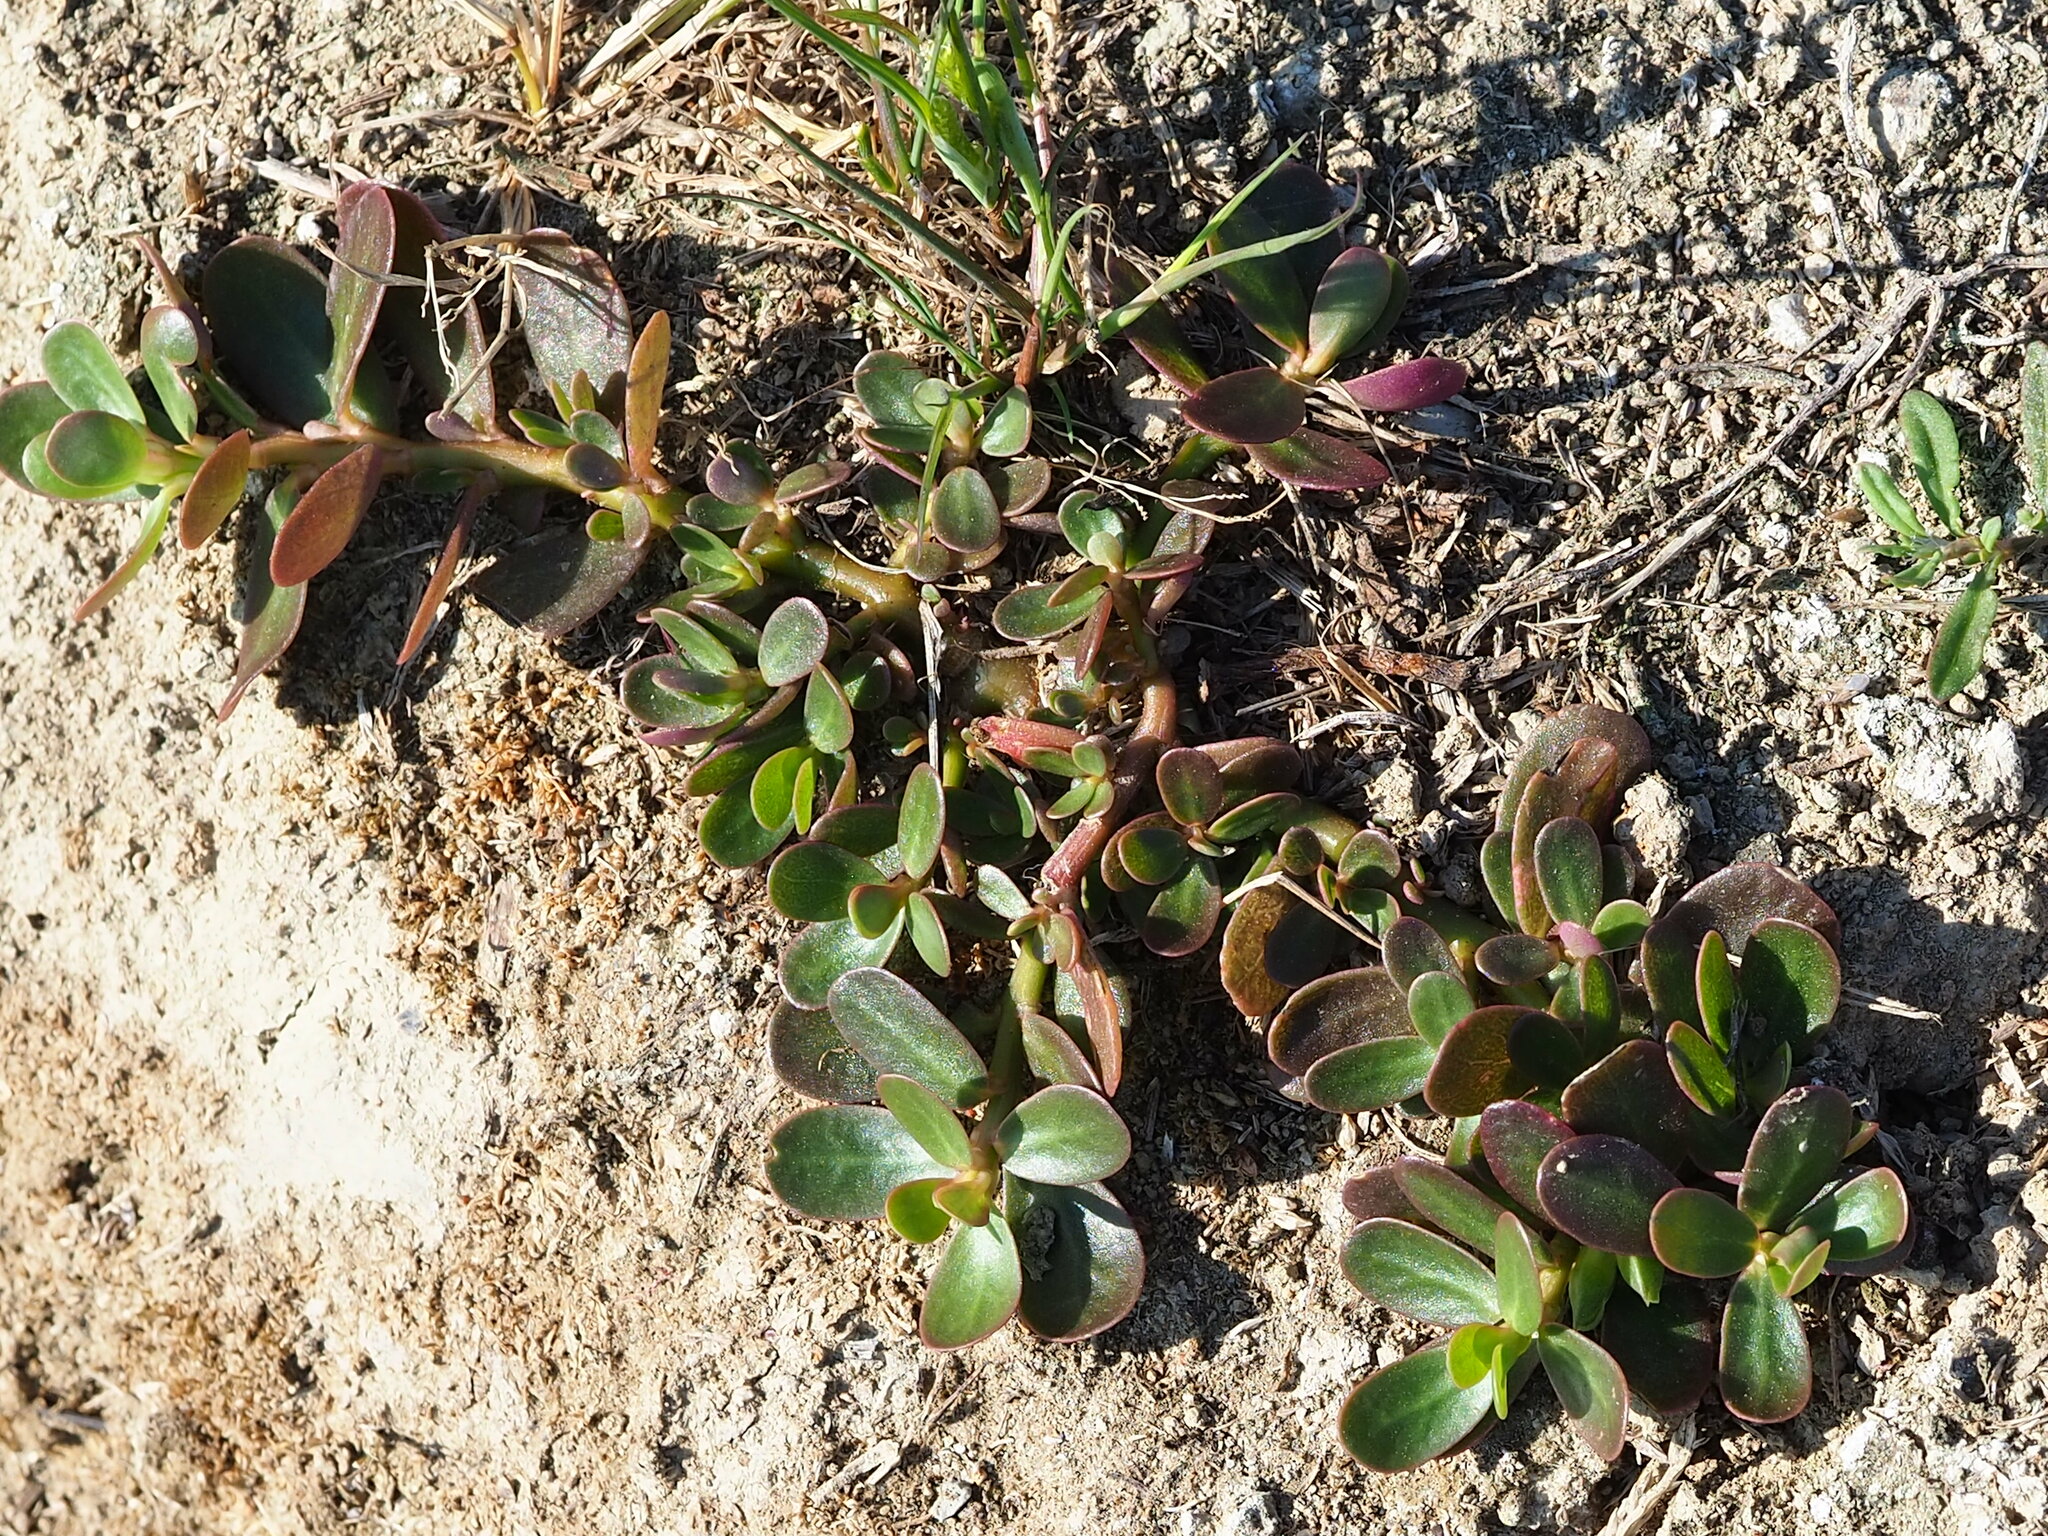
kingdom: Plantae
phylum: Tracheophyta
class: Magnoliopsida
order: Caryophyllales
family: Portulacaceae
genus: Portulaca
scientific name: Portulaca oleracea
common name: Common purslane
